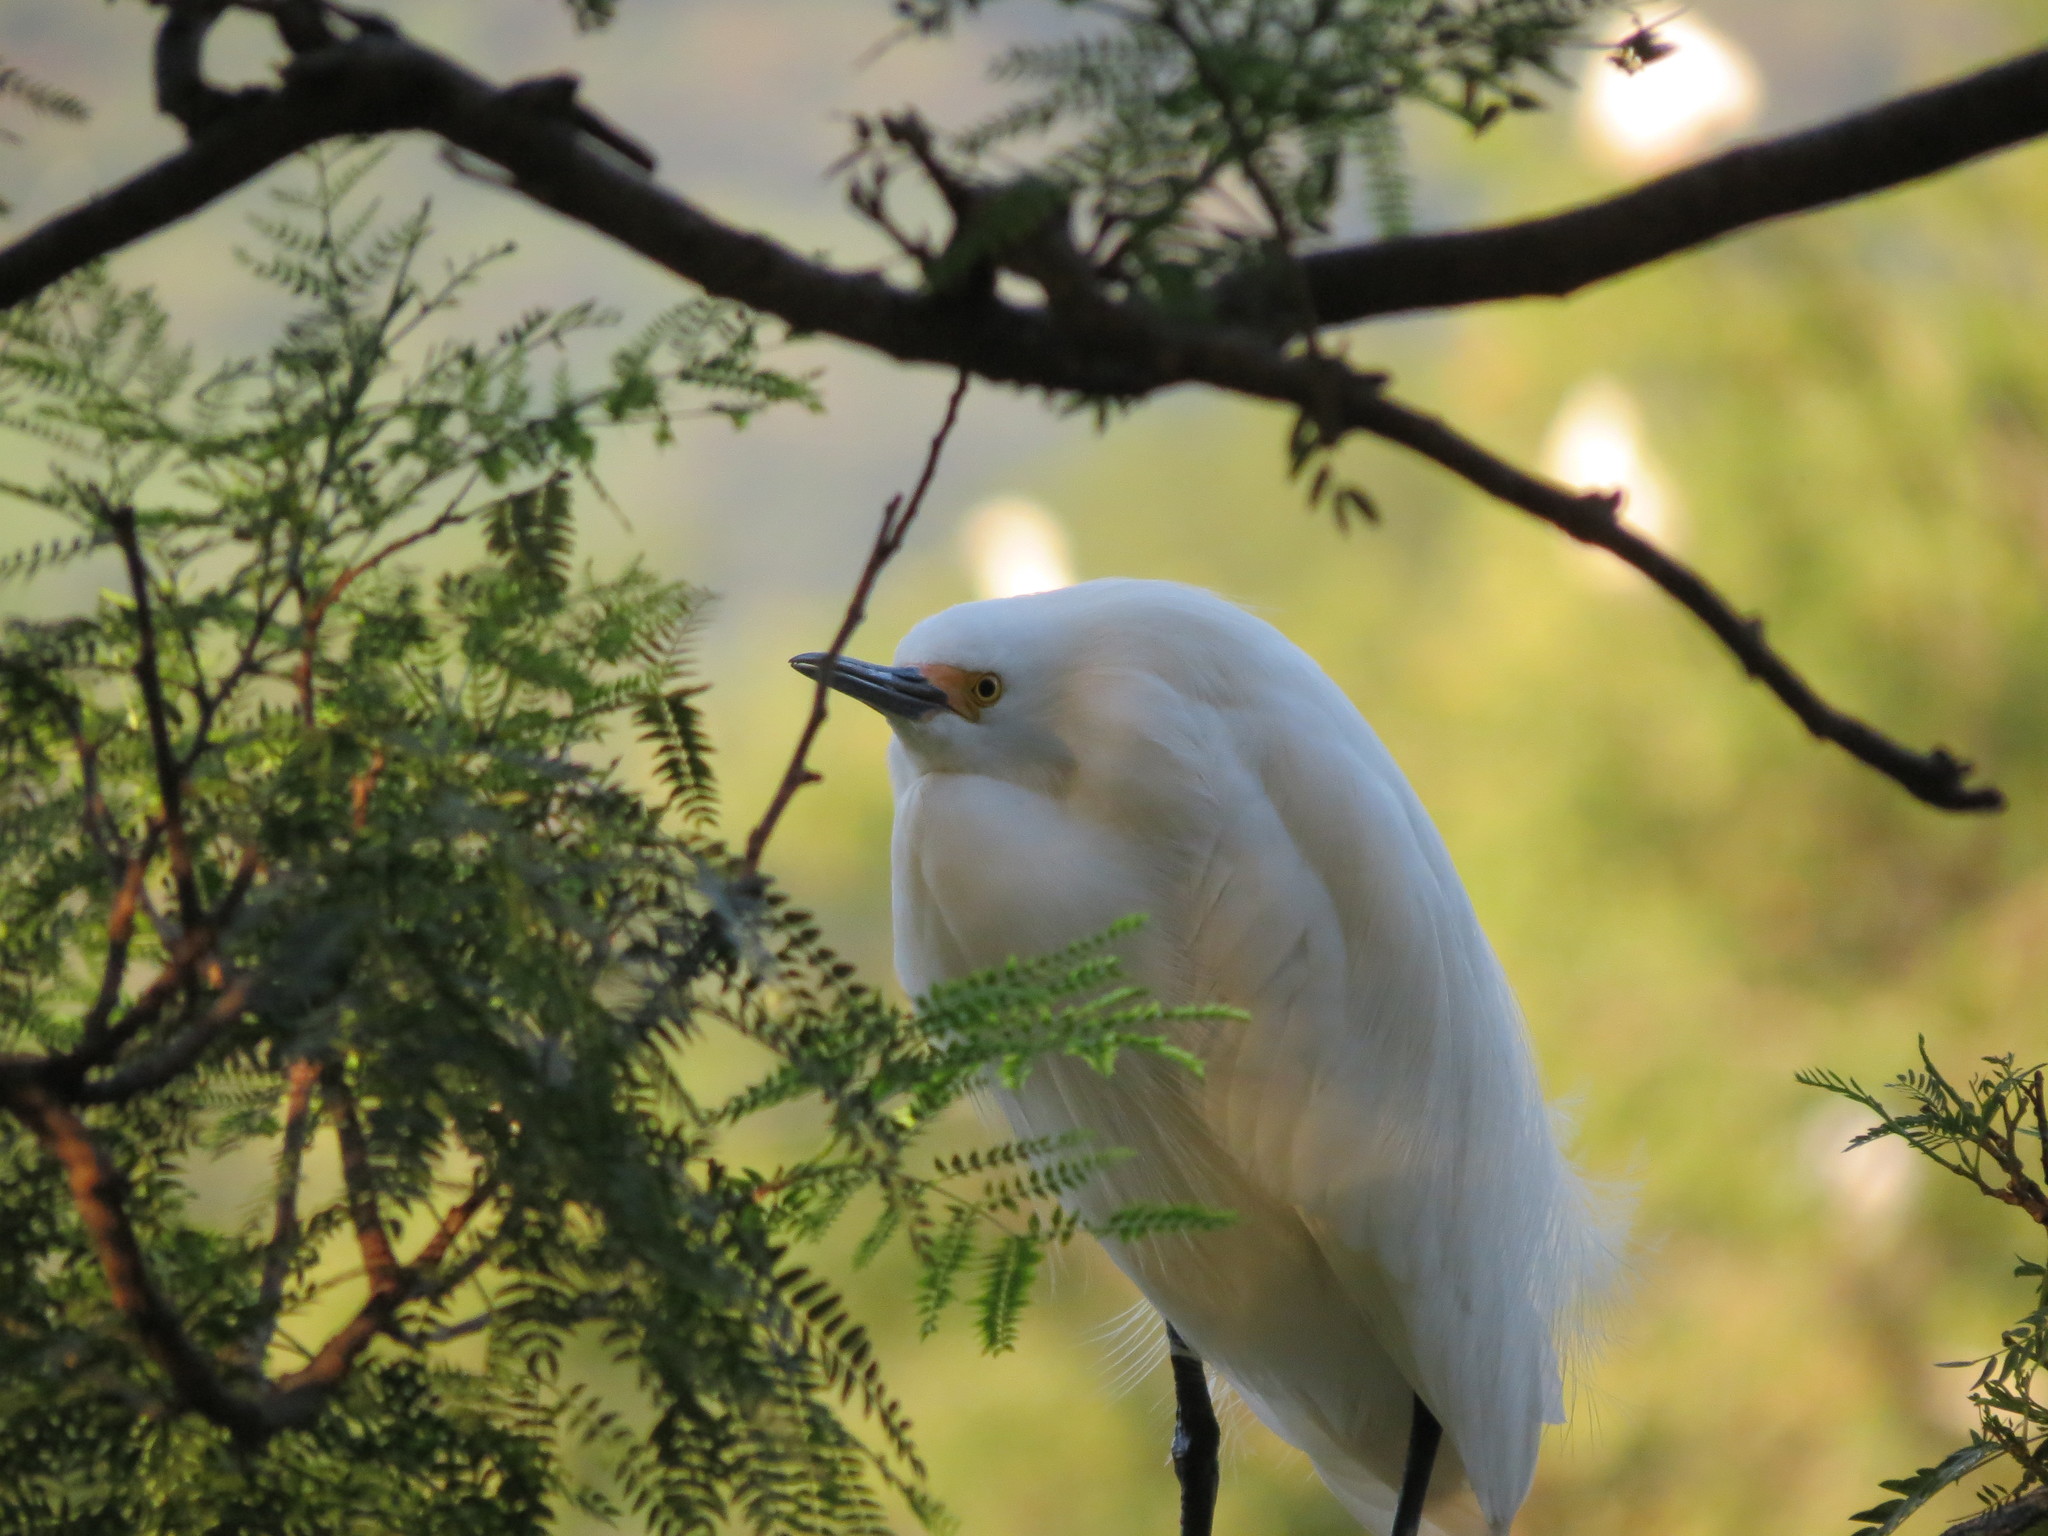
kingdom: Animalia
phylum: Chordata
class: Aves
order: Pelecaniformes
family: Ardeidae
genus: Egretta
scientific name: Egretta thula
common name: Snowy egret
